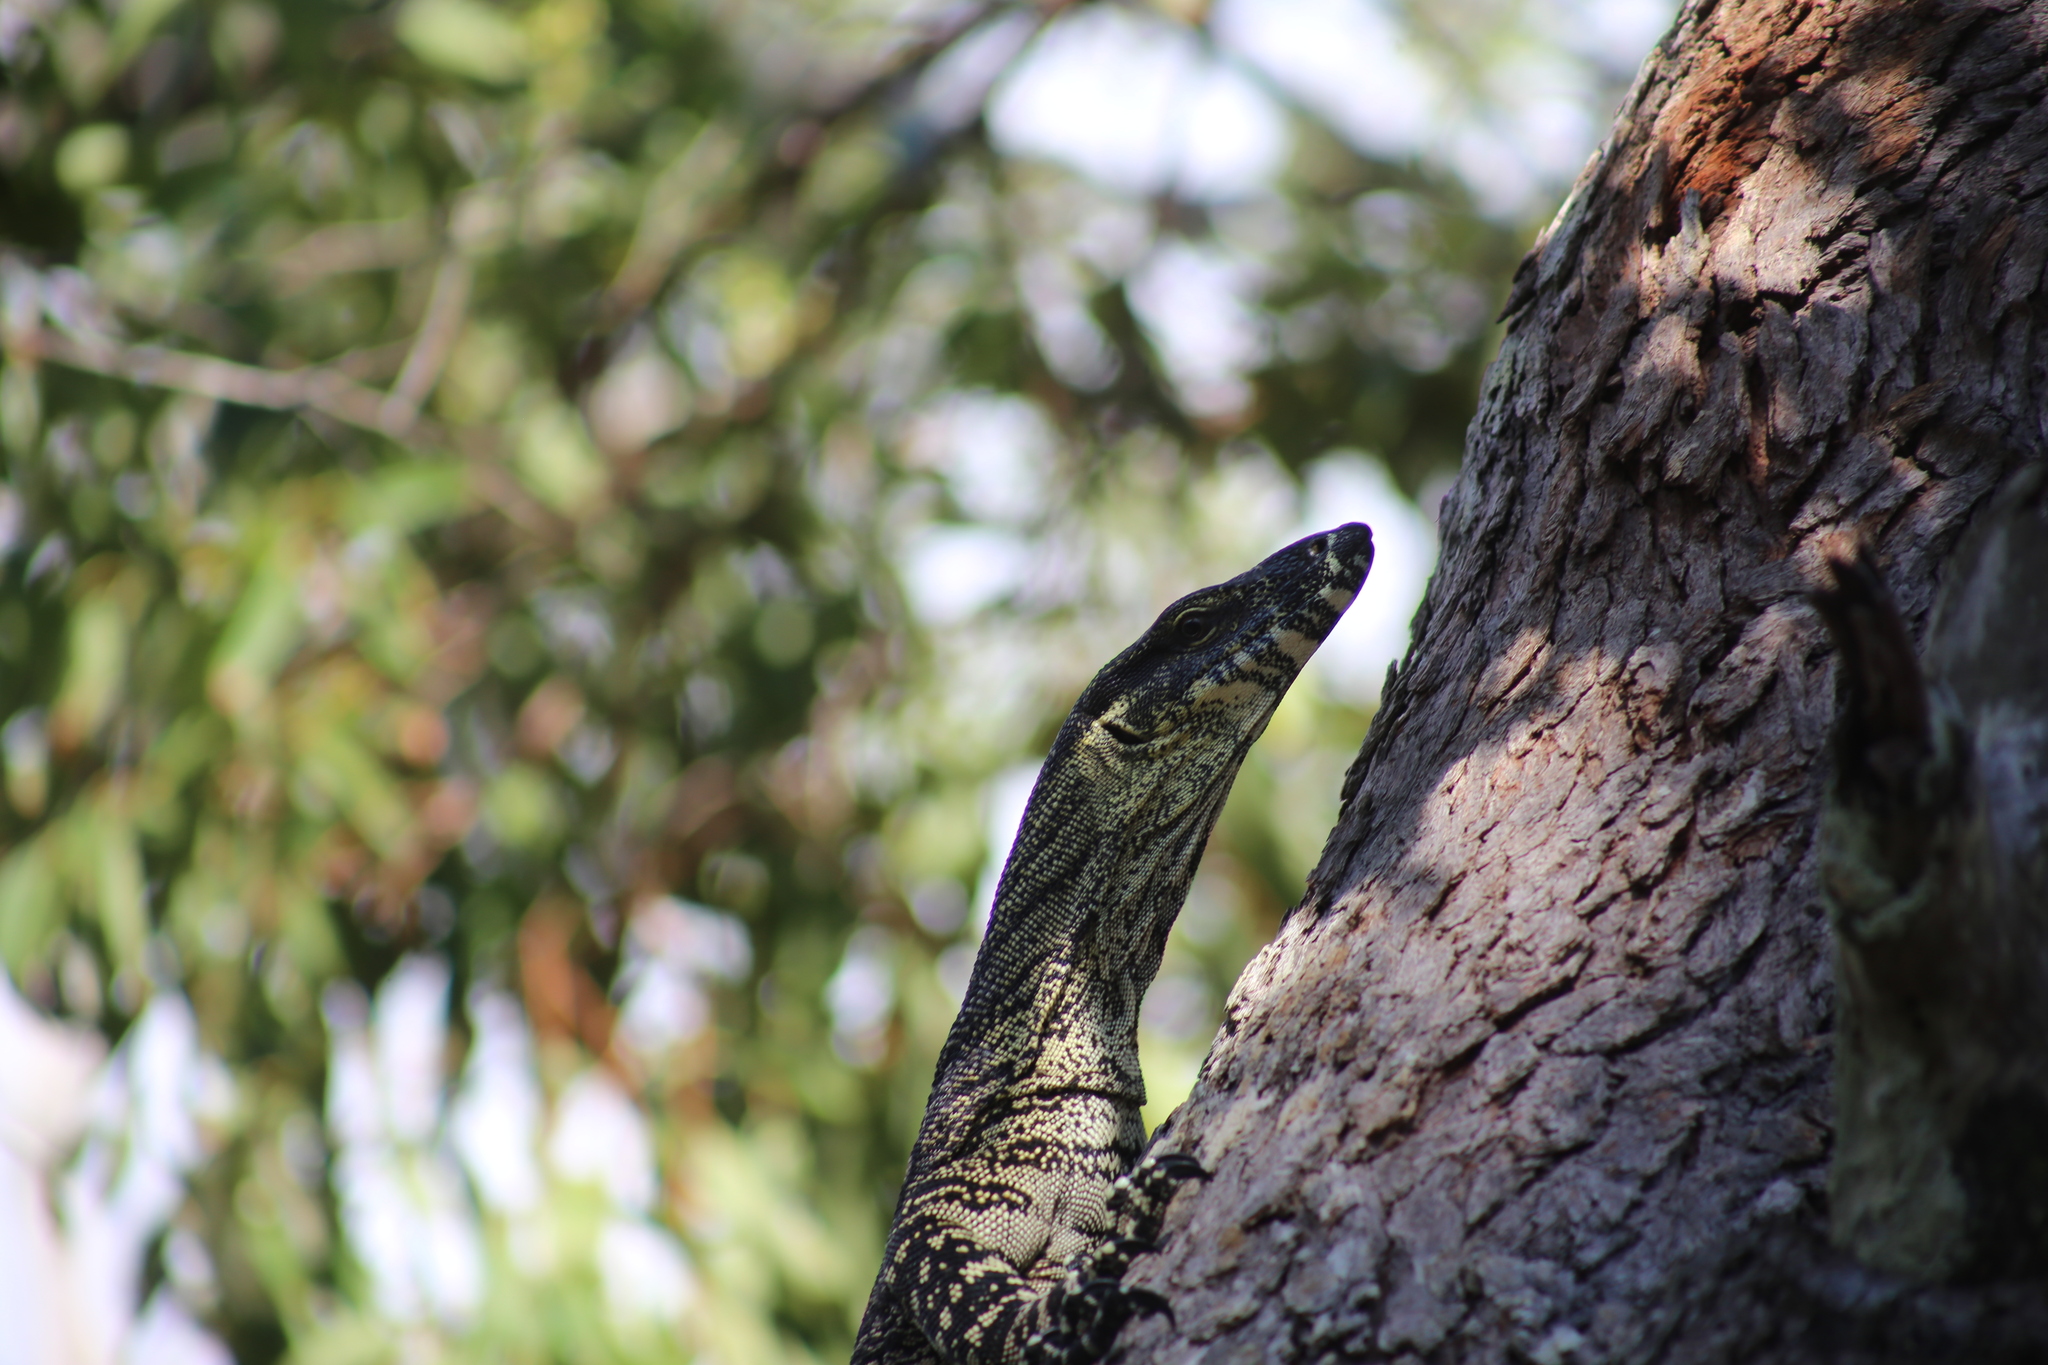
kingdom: Animalia
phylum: Chordata
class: Squamata
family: Varanidae
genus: Varanus
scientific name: Varanus varius
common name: Lace monitor
